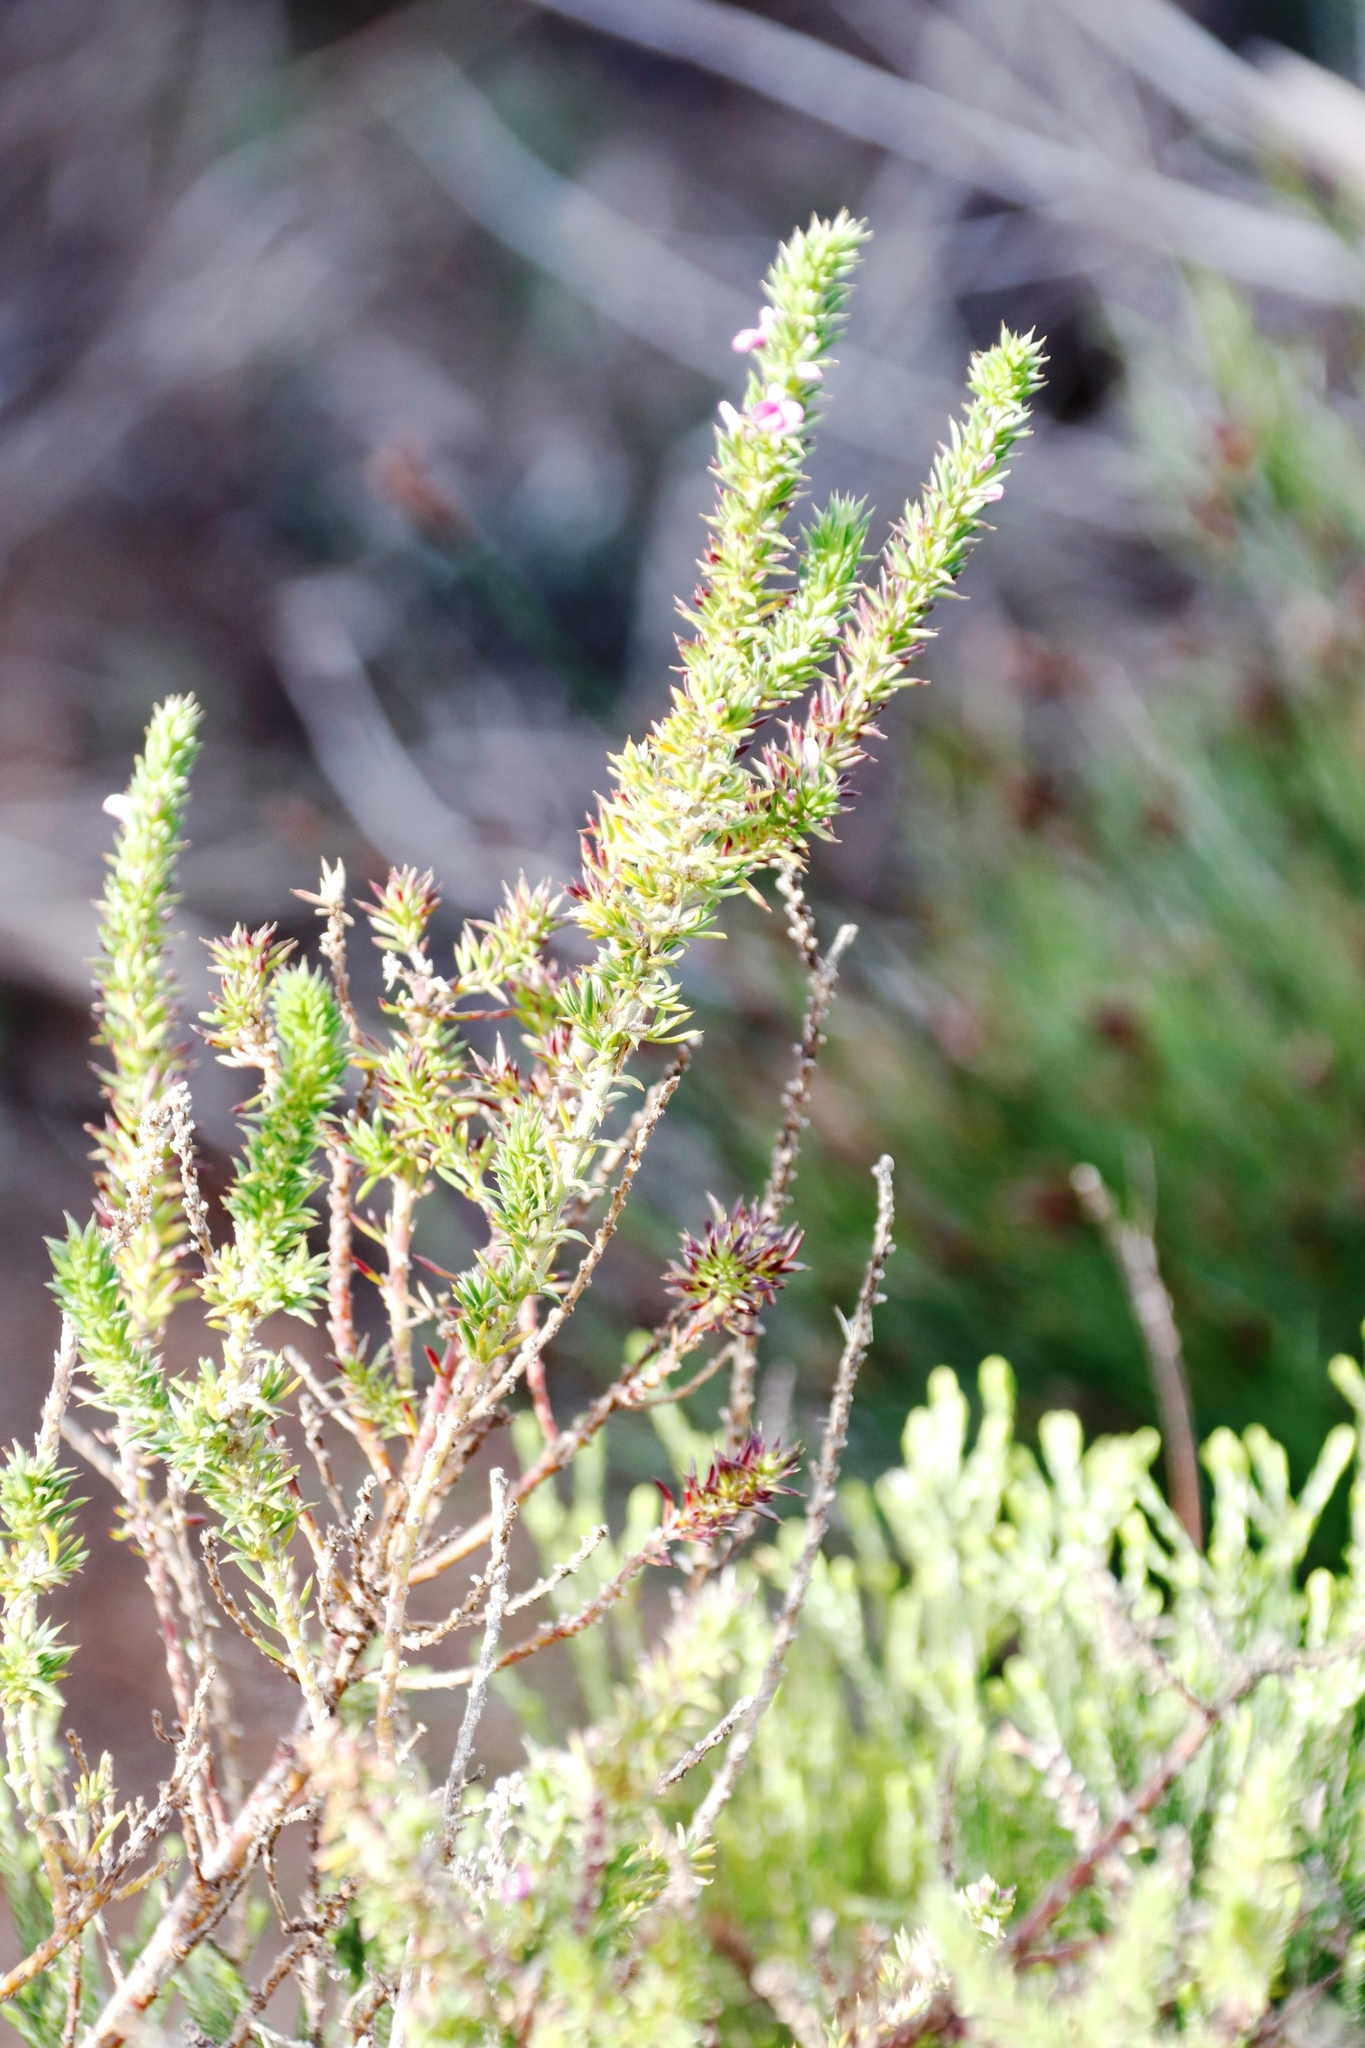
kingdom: Plantae
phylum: Tracheophyta
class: Magnoliopsida
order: Fabales
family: Polygalaceae
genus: Muraltia
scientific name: Muraltia heisteria
